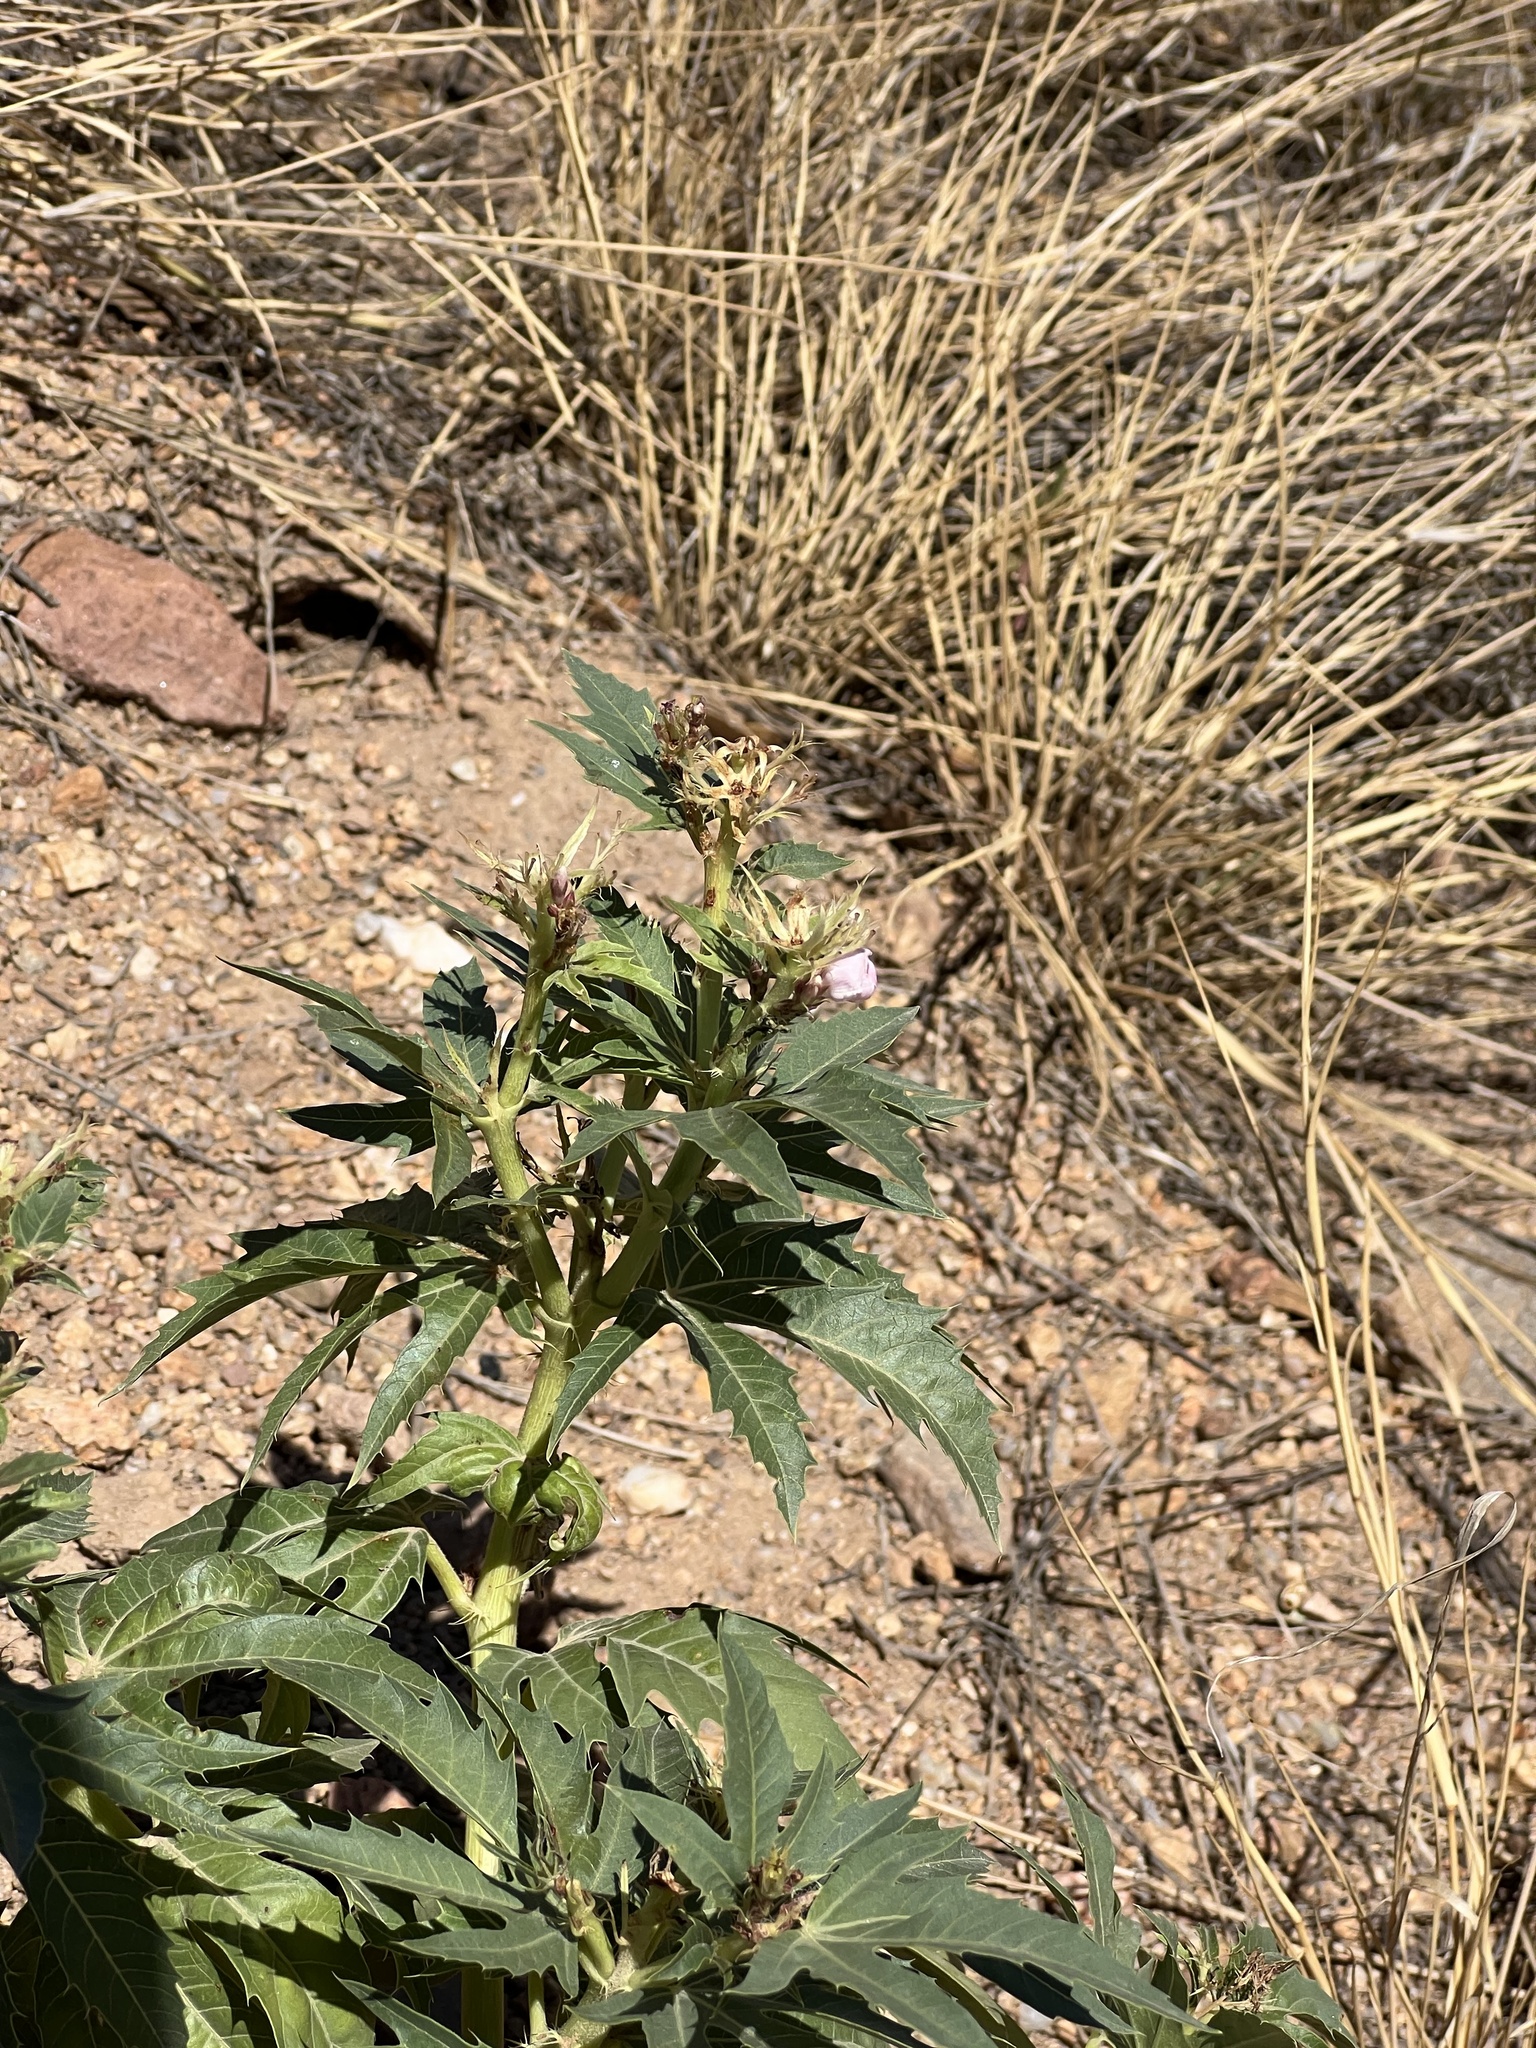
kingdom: Plantae
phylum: Tracheophyta
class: Magnoliopsida
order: Malpighiales
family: Euphorbiaceae
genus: Jatropha
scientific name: Jatropha macrorhiza
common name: Ragged nettlespurge
